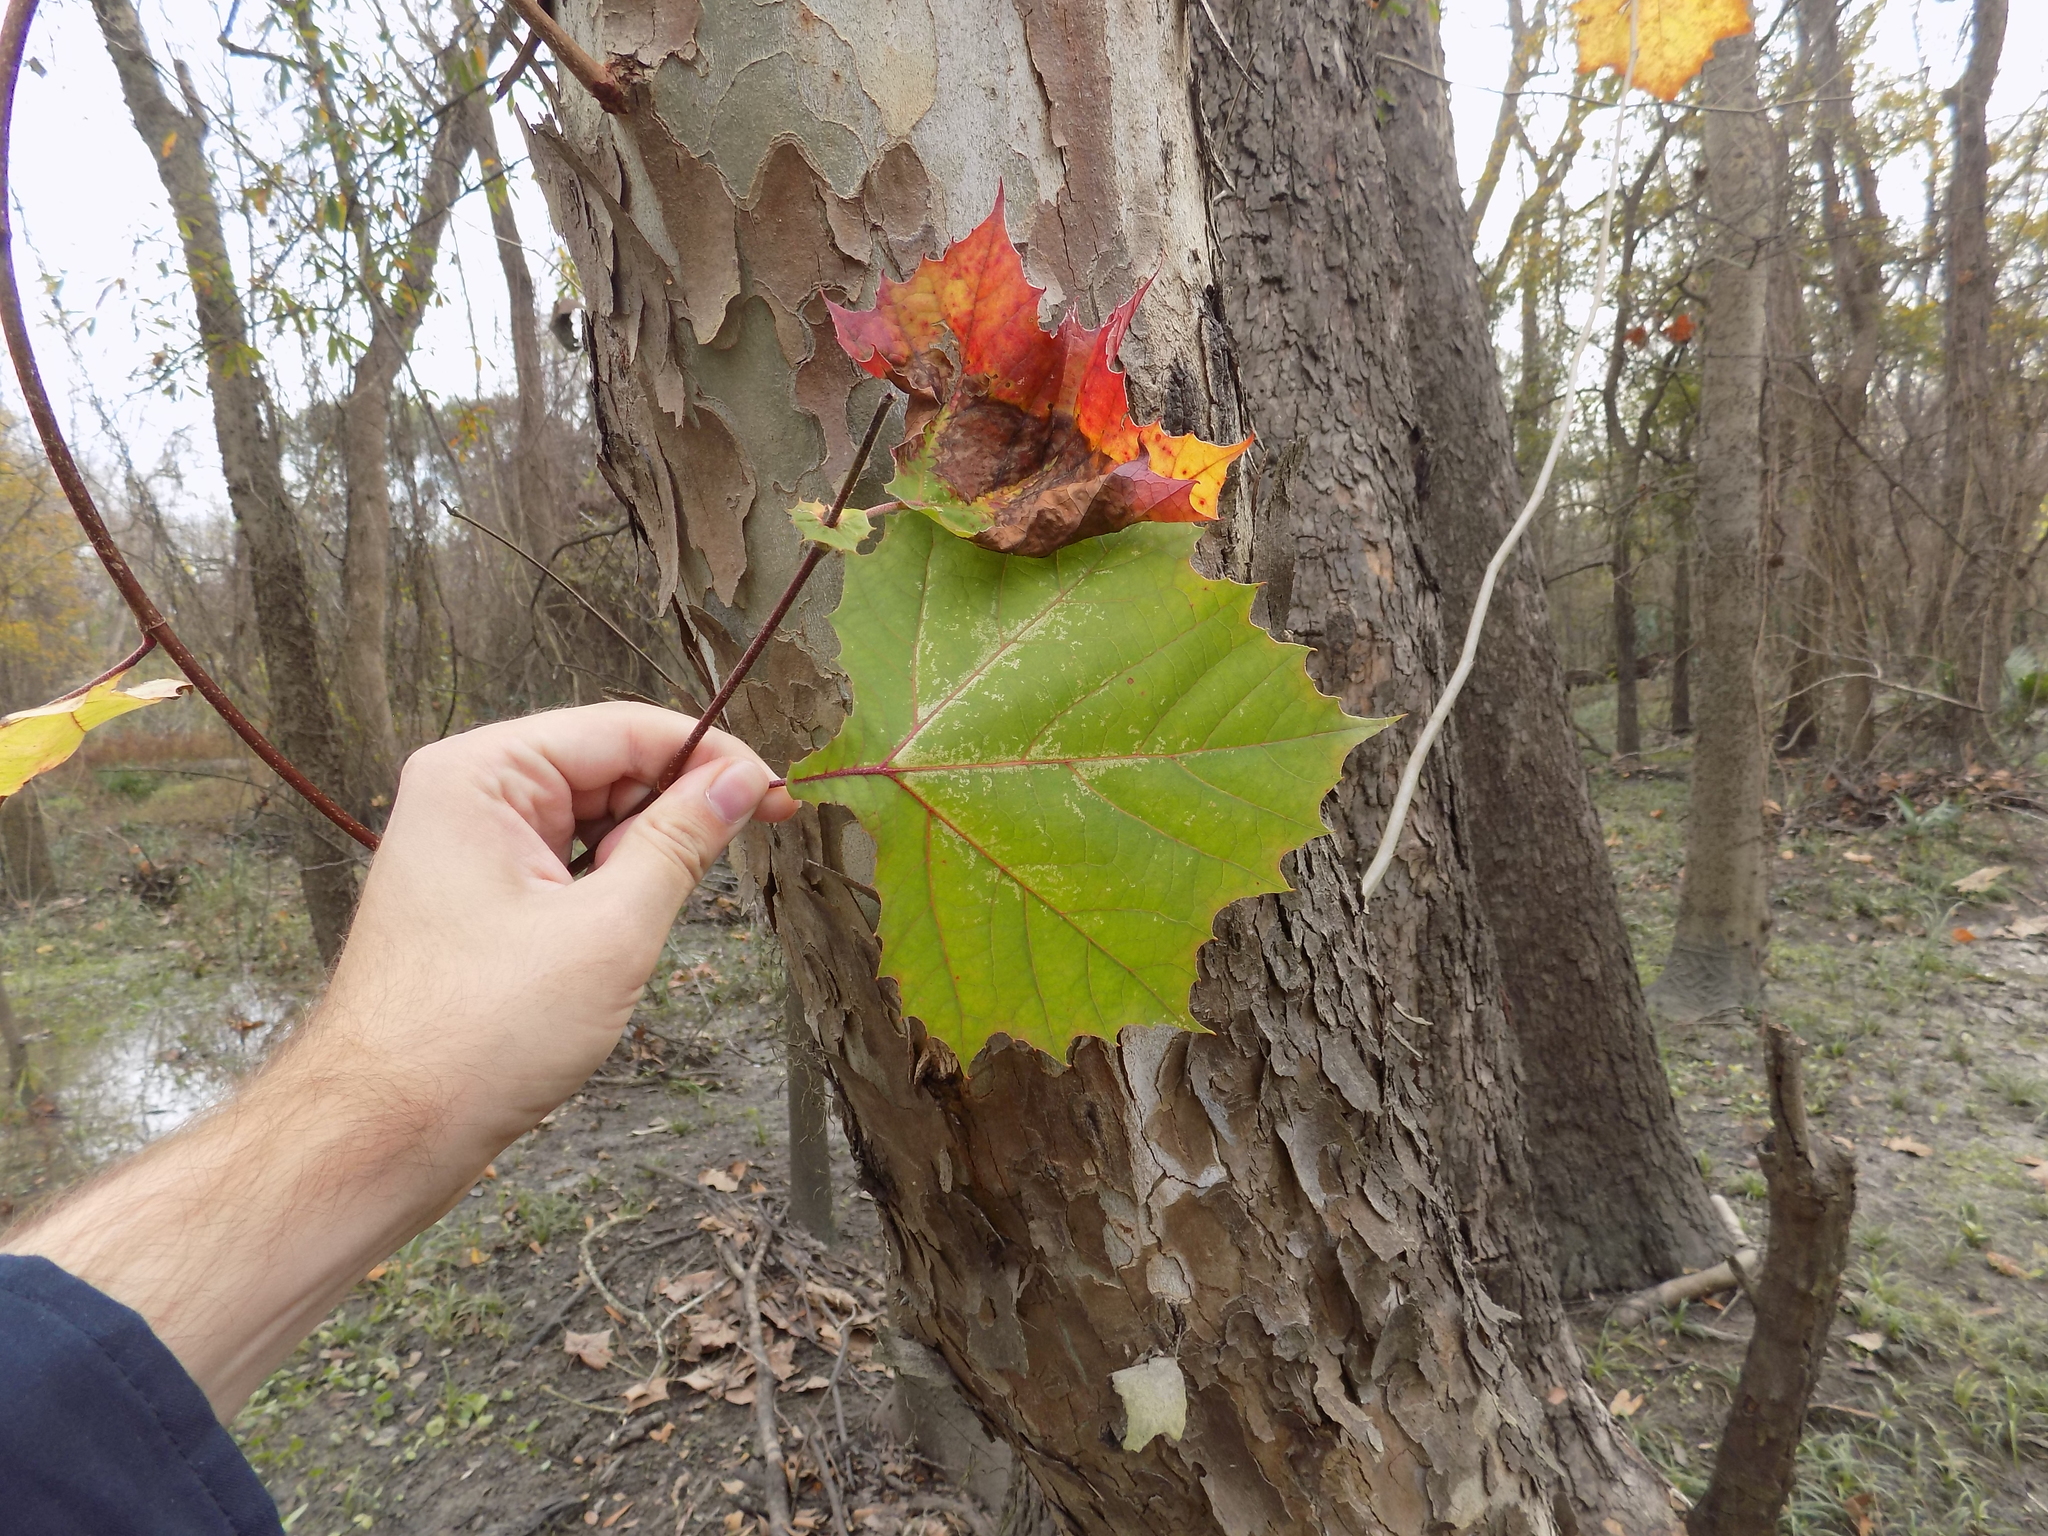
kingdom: Plantae
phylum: Tracheophyta
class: Magnoliopsida
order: Proteales
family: Platanaceae
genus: Platanus
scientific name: Platanus occidentalis
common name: American sycamore
